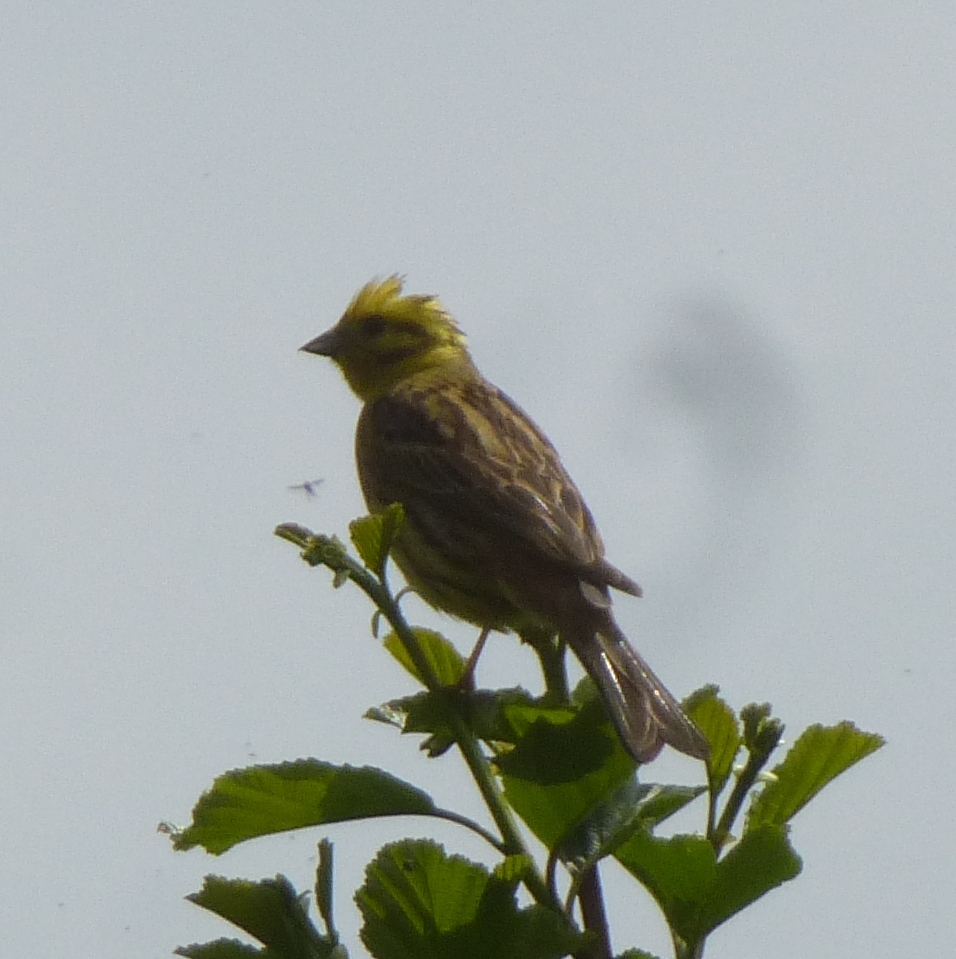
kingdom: Animalia
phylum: Chordata
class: Aves
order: Passeriformes
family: Emberizidae
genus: Emberiza
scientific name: Emberiza citrinella
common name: Yellowhammer
